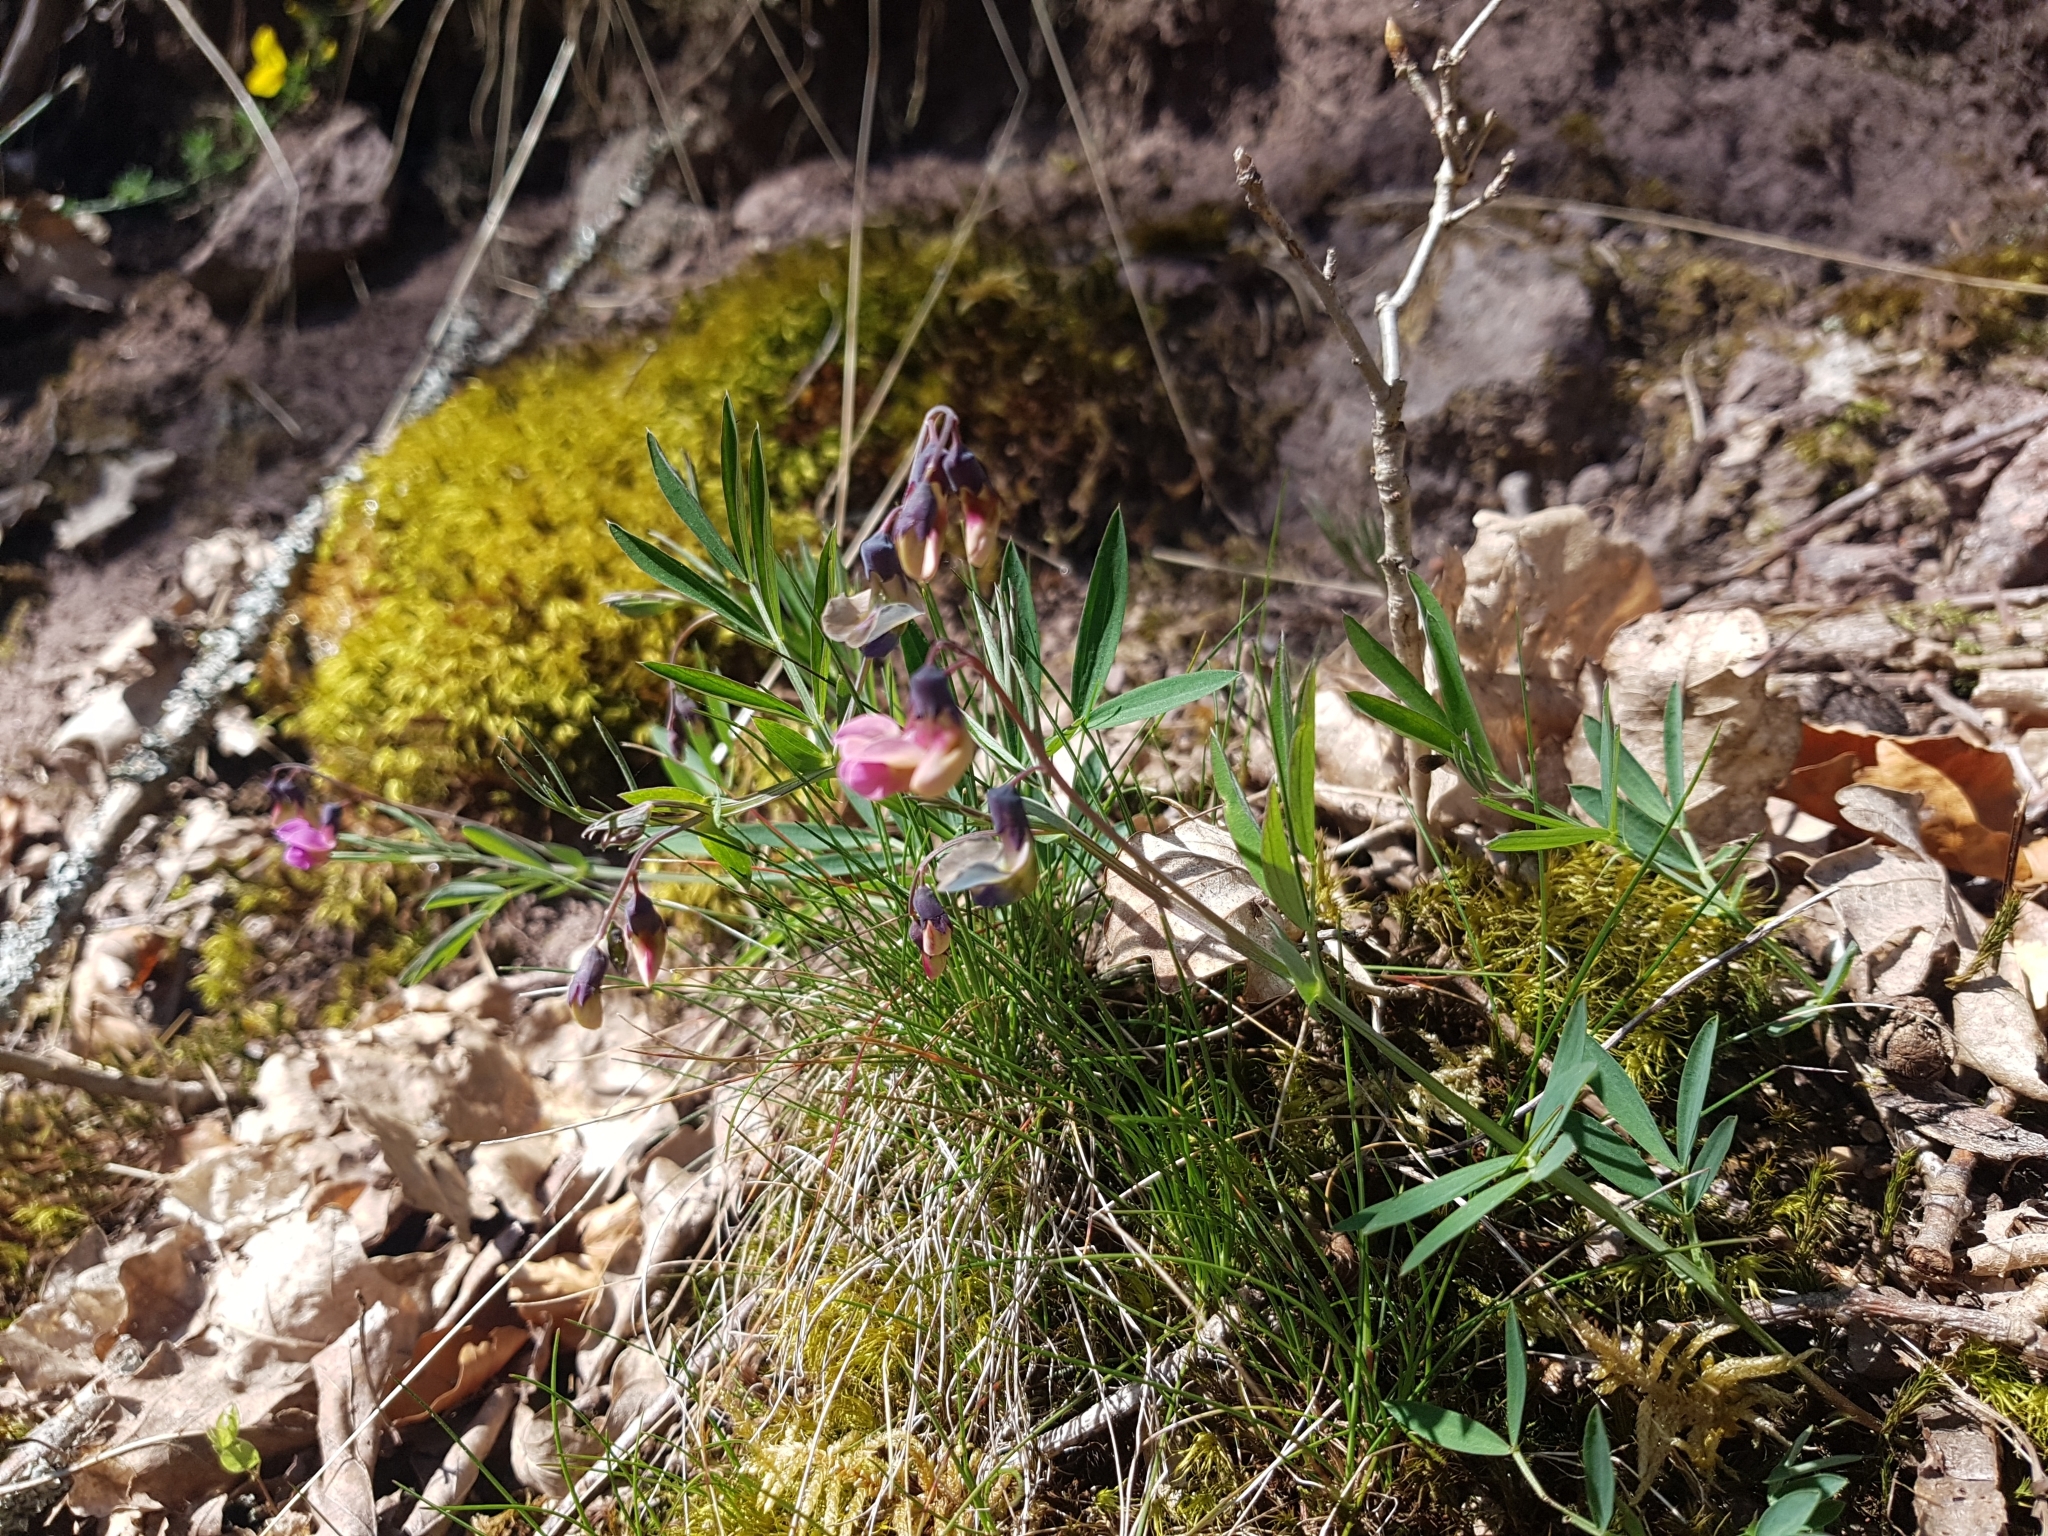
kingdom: Plantae
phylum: Tracheophyta
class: Magnoliopsida
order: Fabales
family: Fabaceae
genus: Lathyrus
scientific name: Lathyrus linifolius
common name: Bitter-vetch
